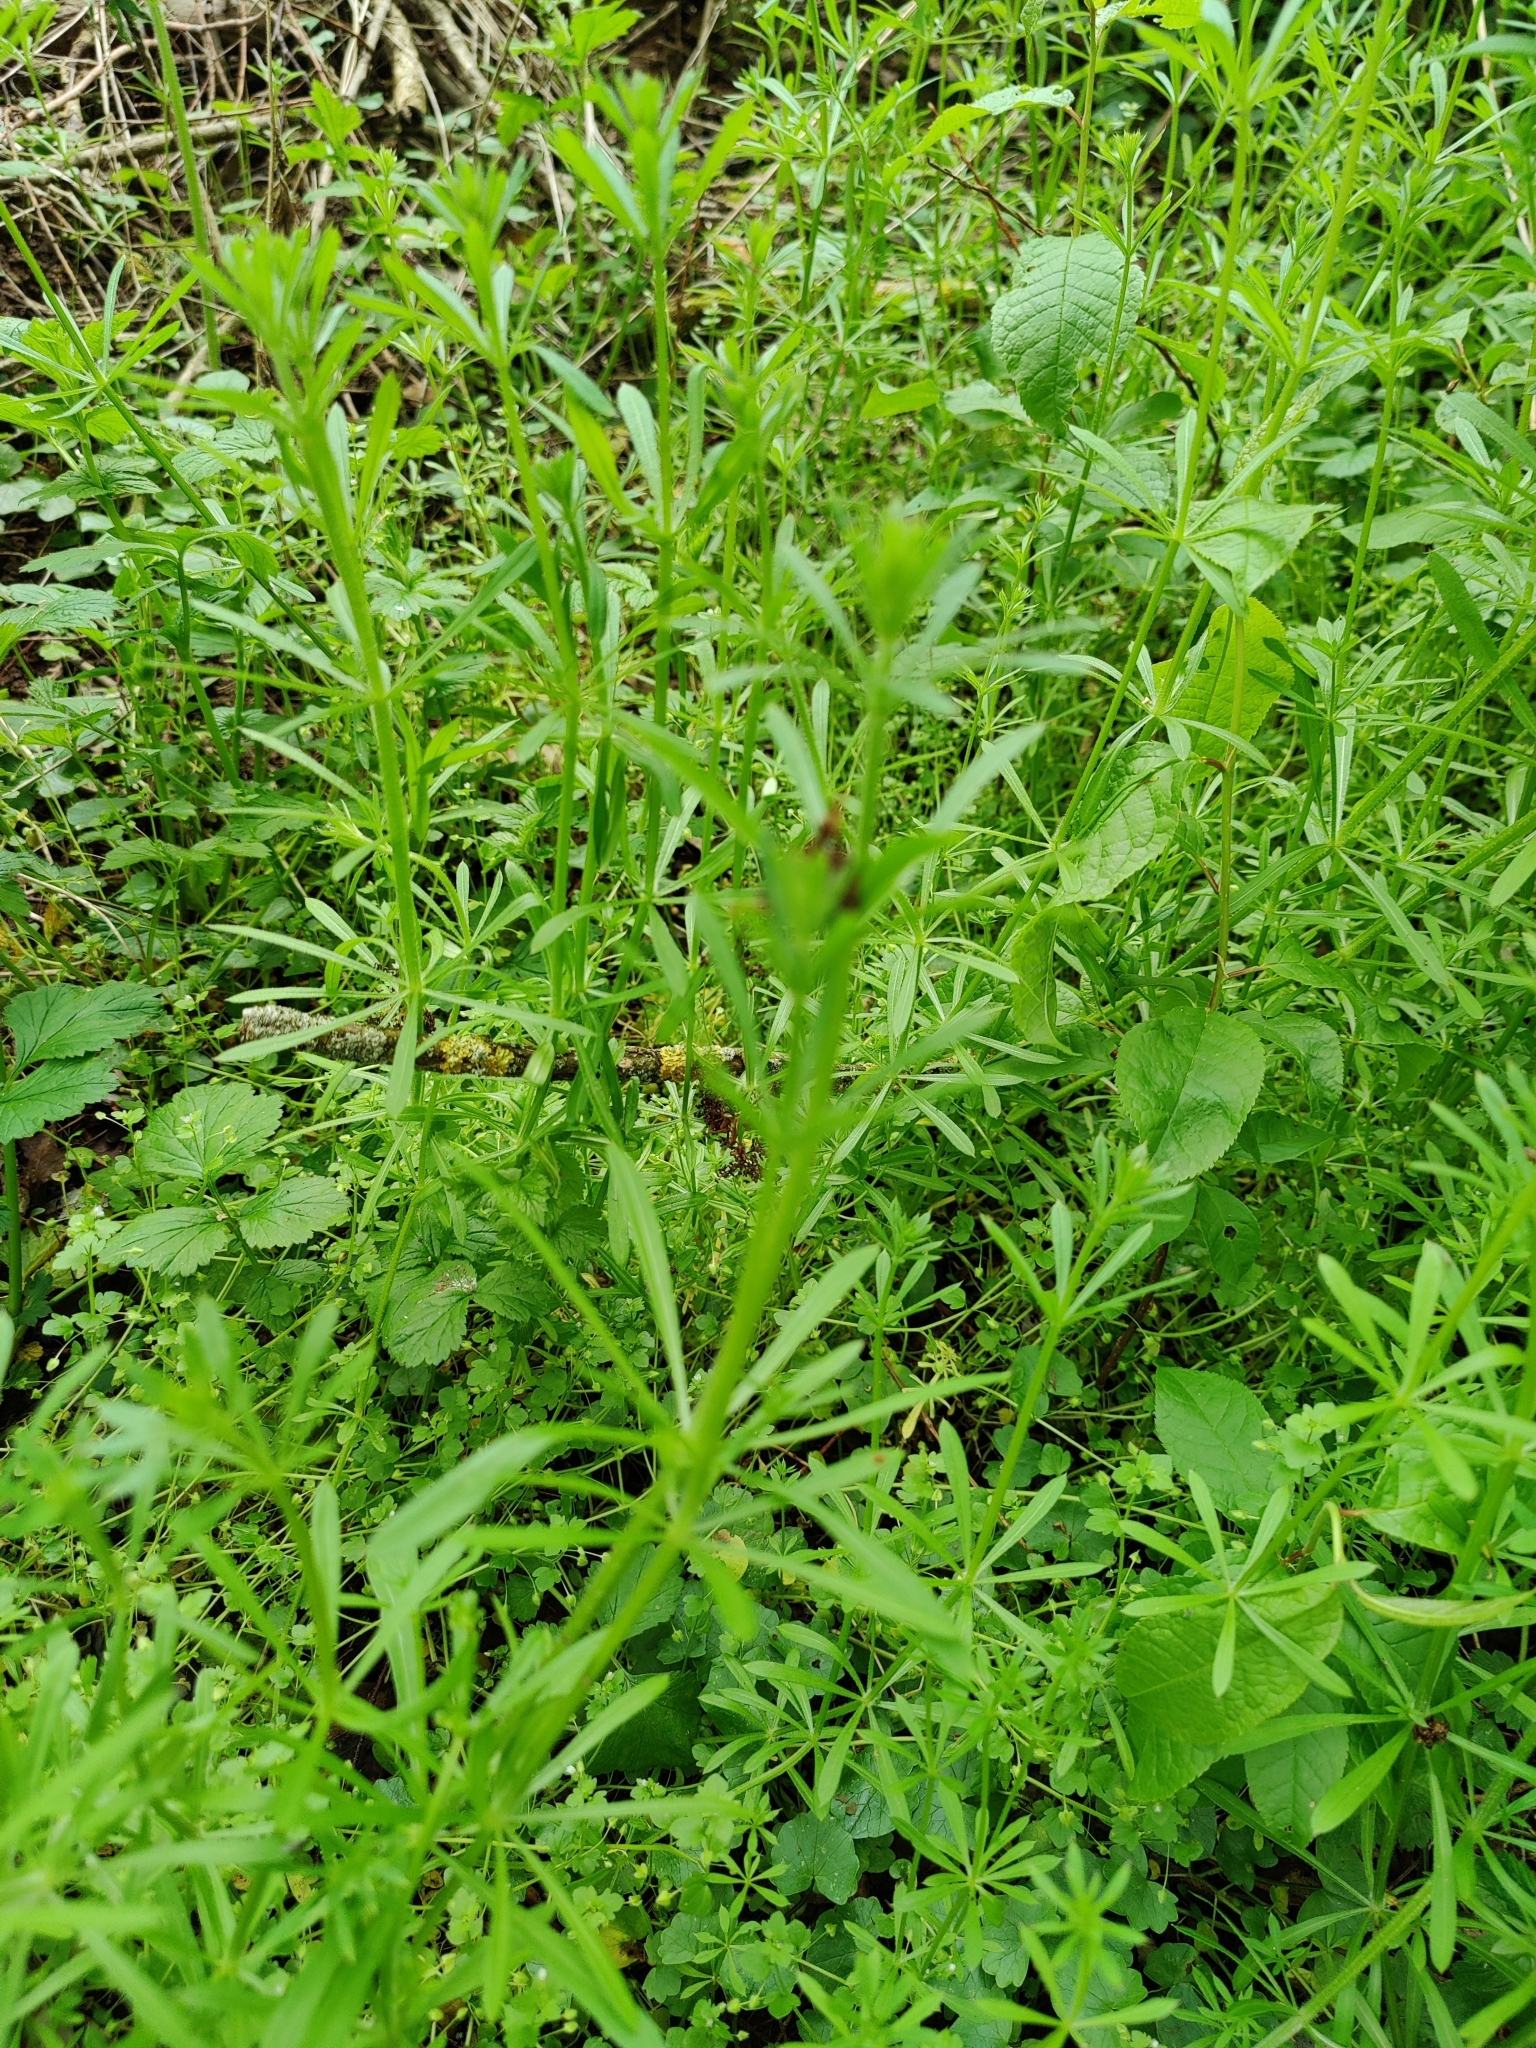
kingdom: Plantae
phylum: Tracheophyta
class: Magnoliopsida
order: Gentianales
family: Rubiaceae
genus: Galium
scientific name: Galium aparine
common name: Cleavers
